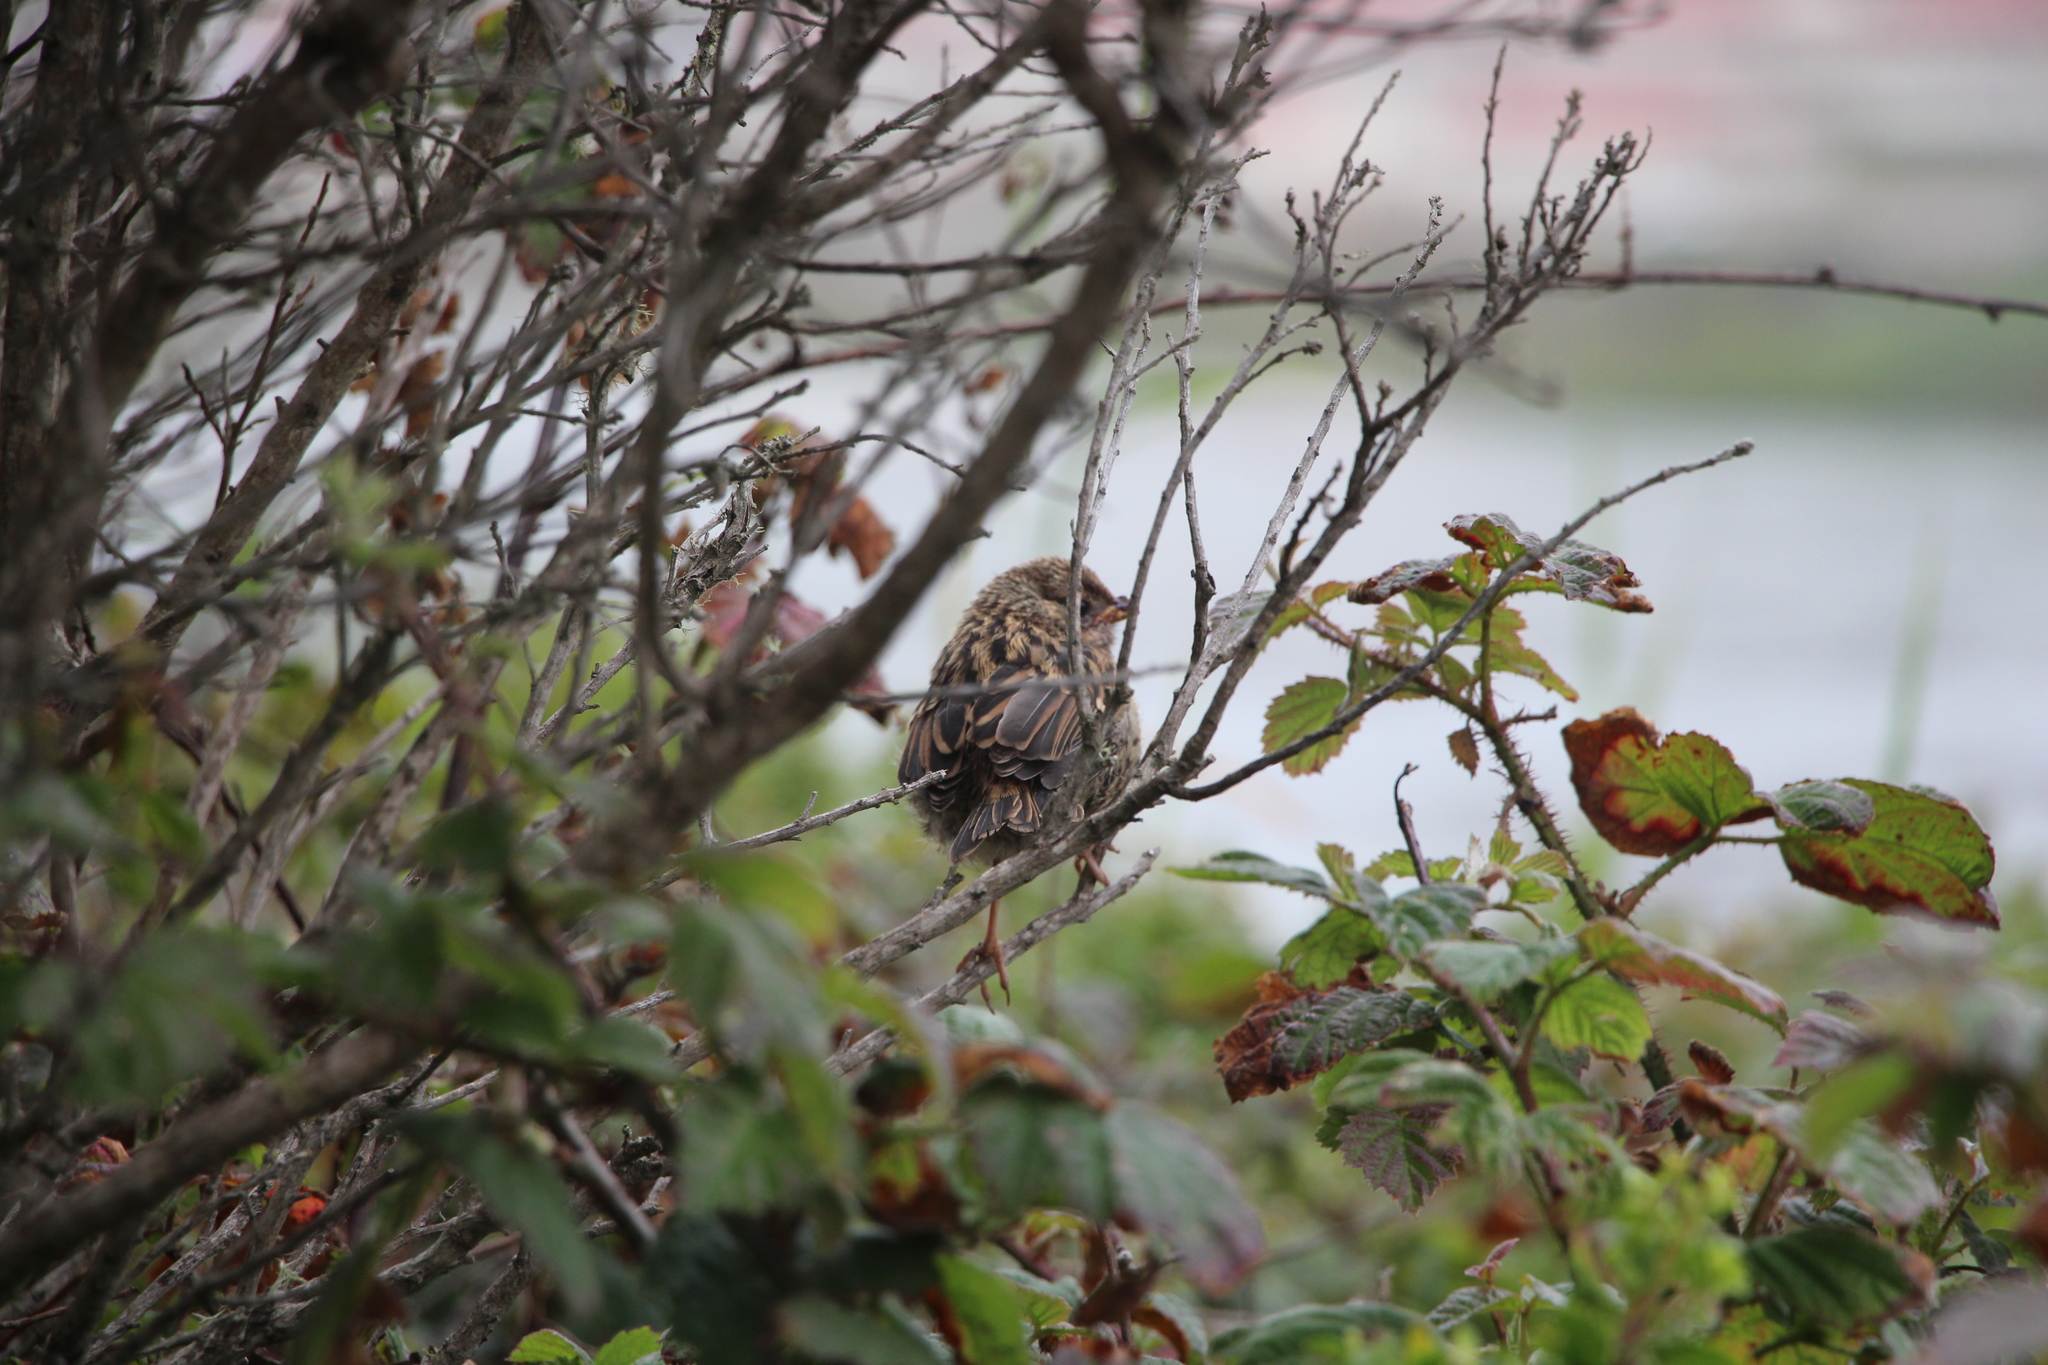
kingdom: Animalia
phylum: Chordata
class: Aves
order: Passeriformes
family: Passerellidae
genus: Zonotrichia
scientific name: Zonotrichia leucophrys
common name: White-crowned sparrow
